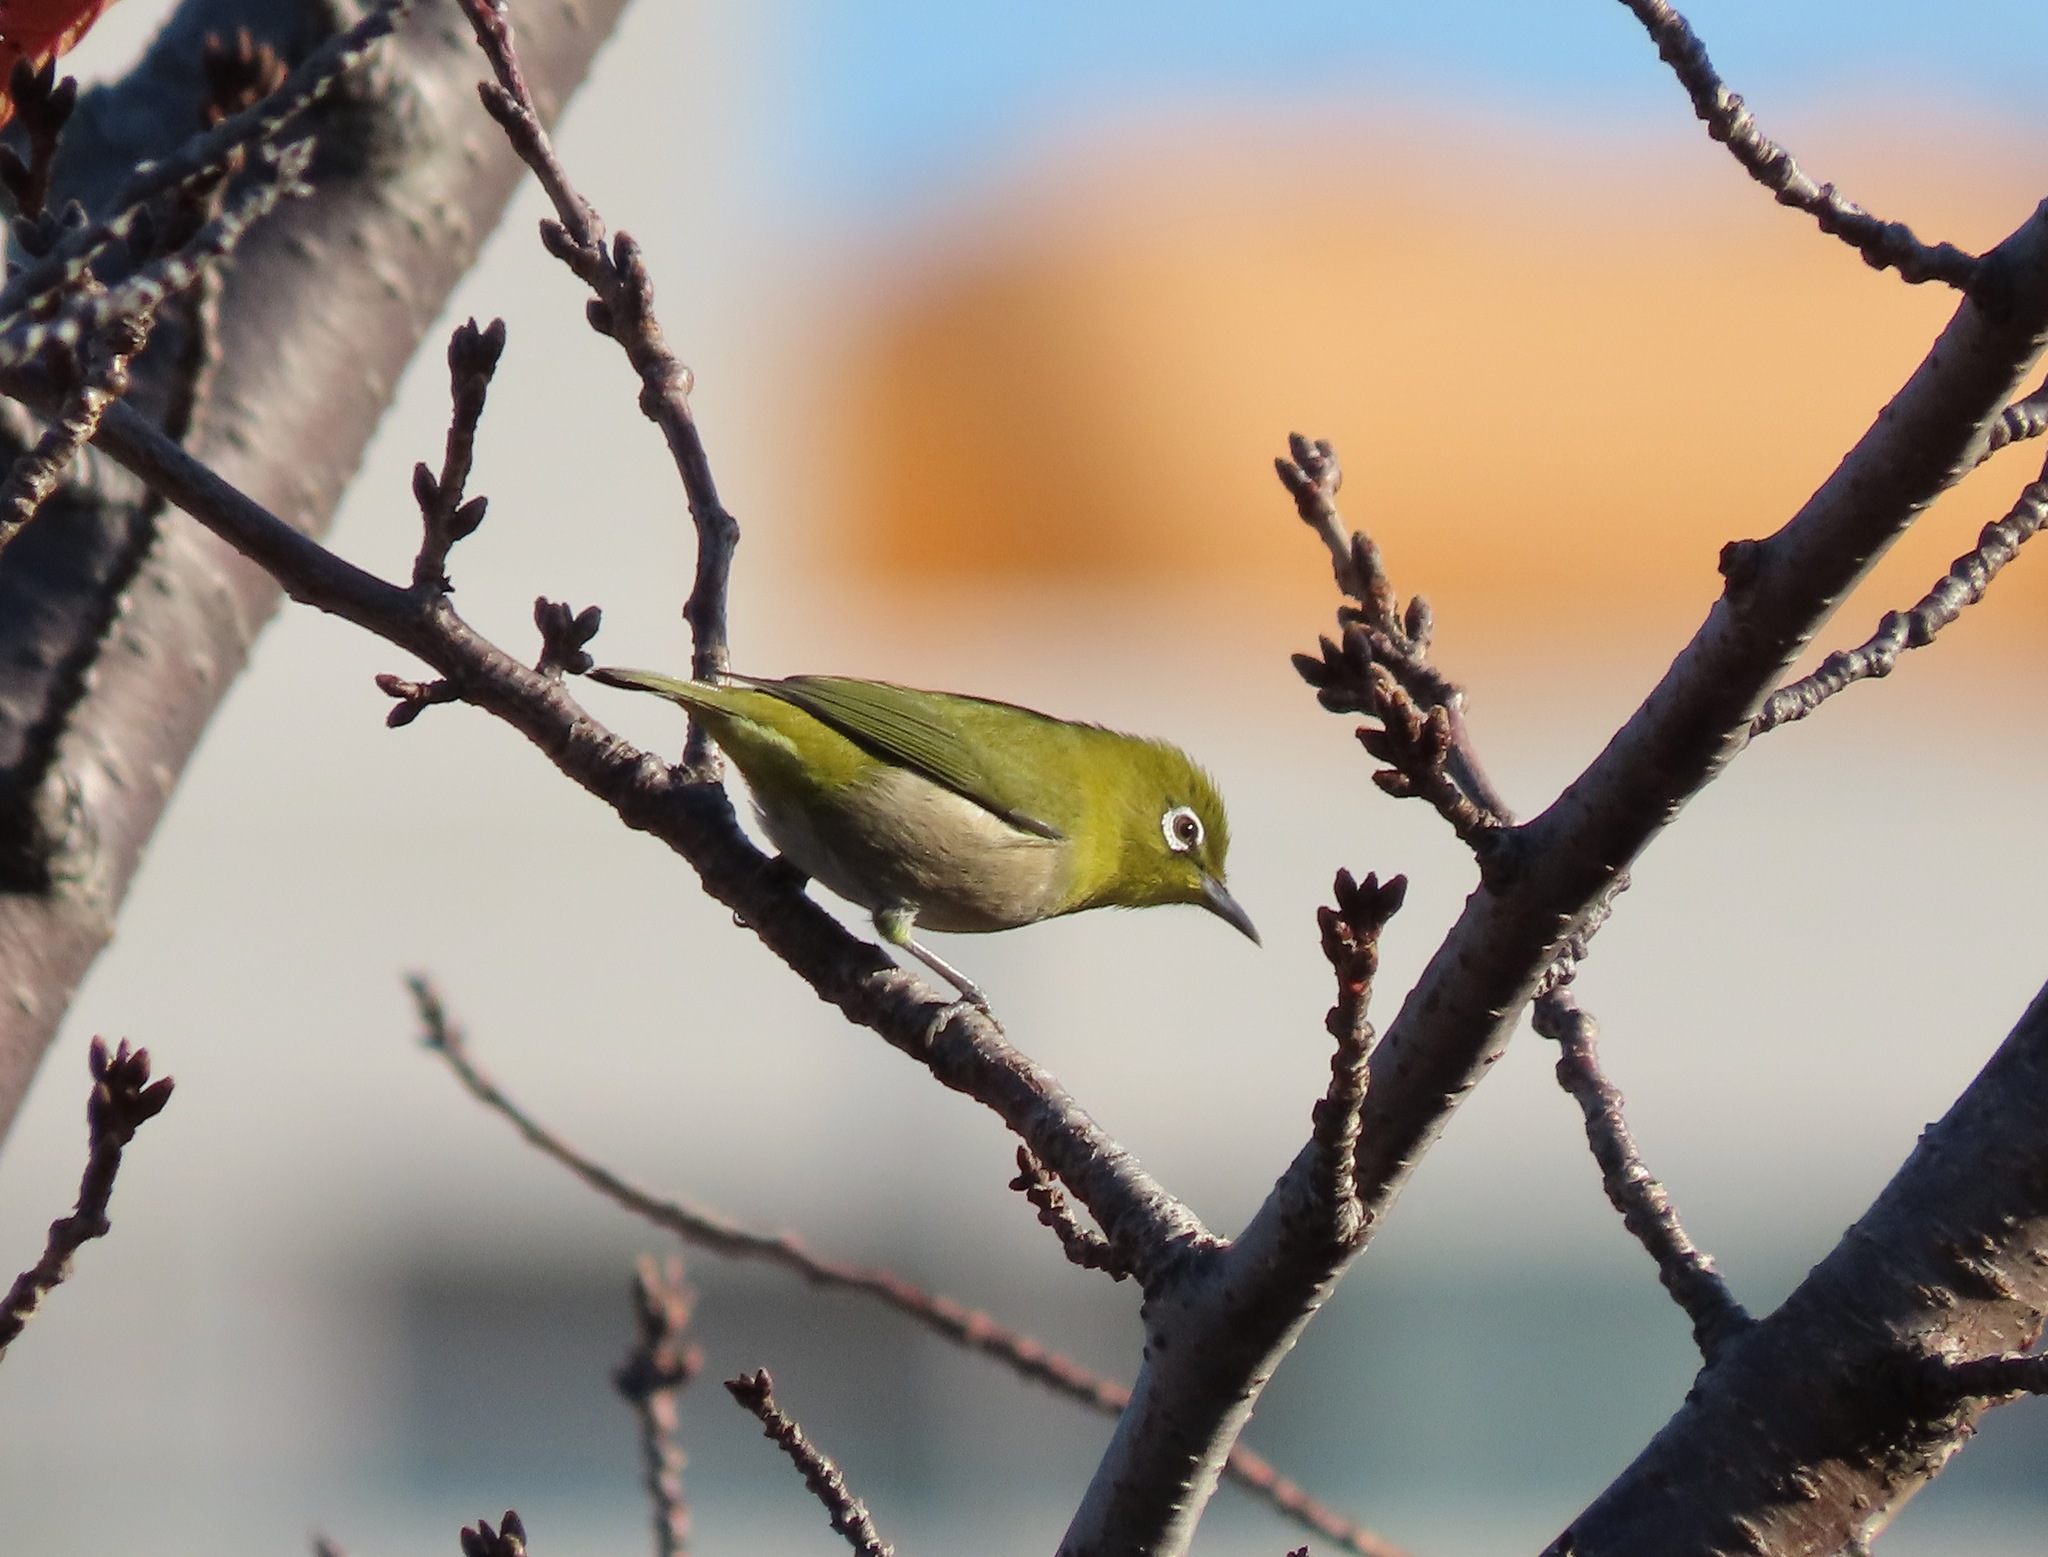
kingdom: Animalia
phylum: Chordata
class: Aves
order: Passeriformes
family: Zosteropidae
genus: Zosterops
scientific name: Zosterops japonicus
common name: Japanese white-eye
